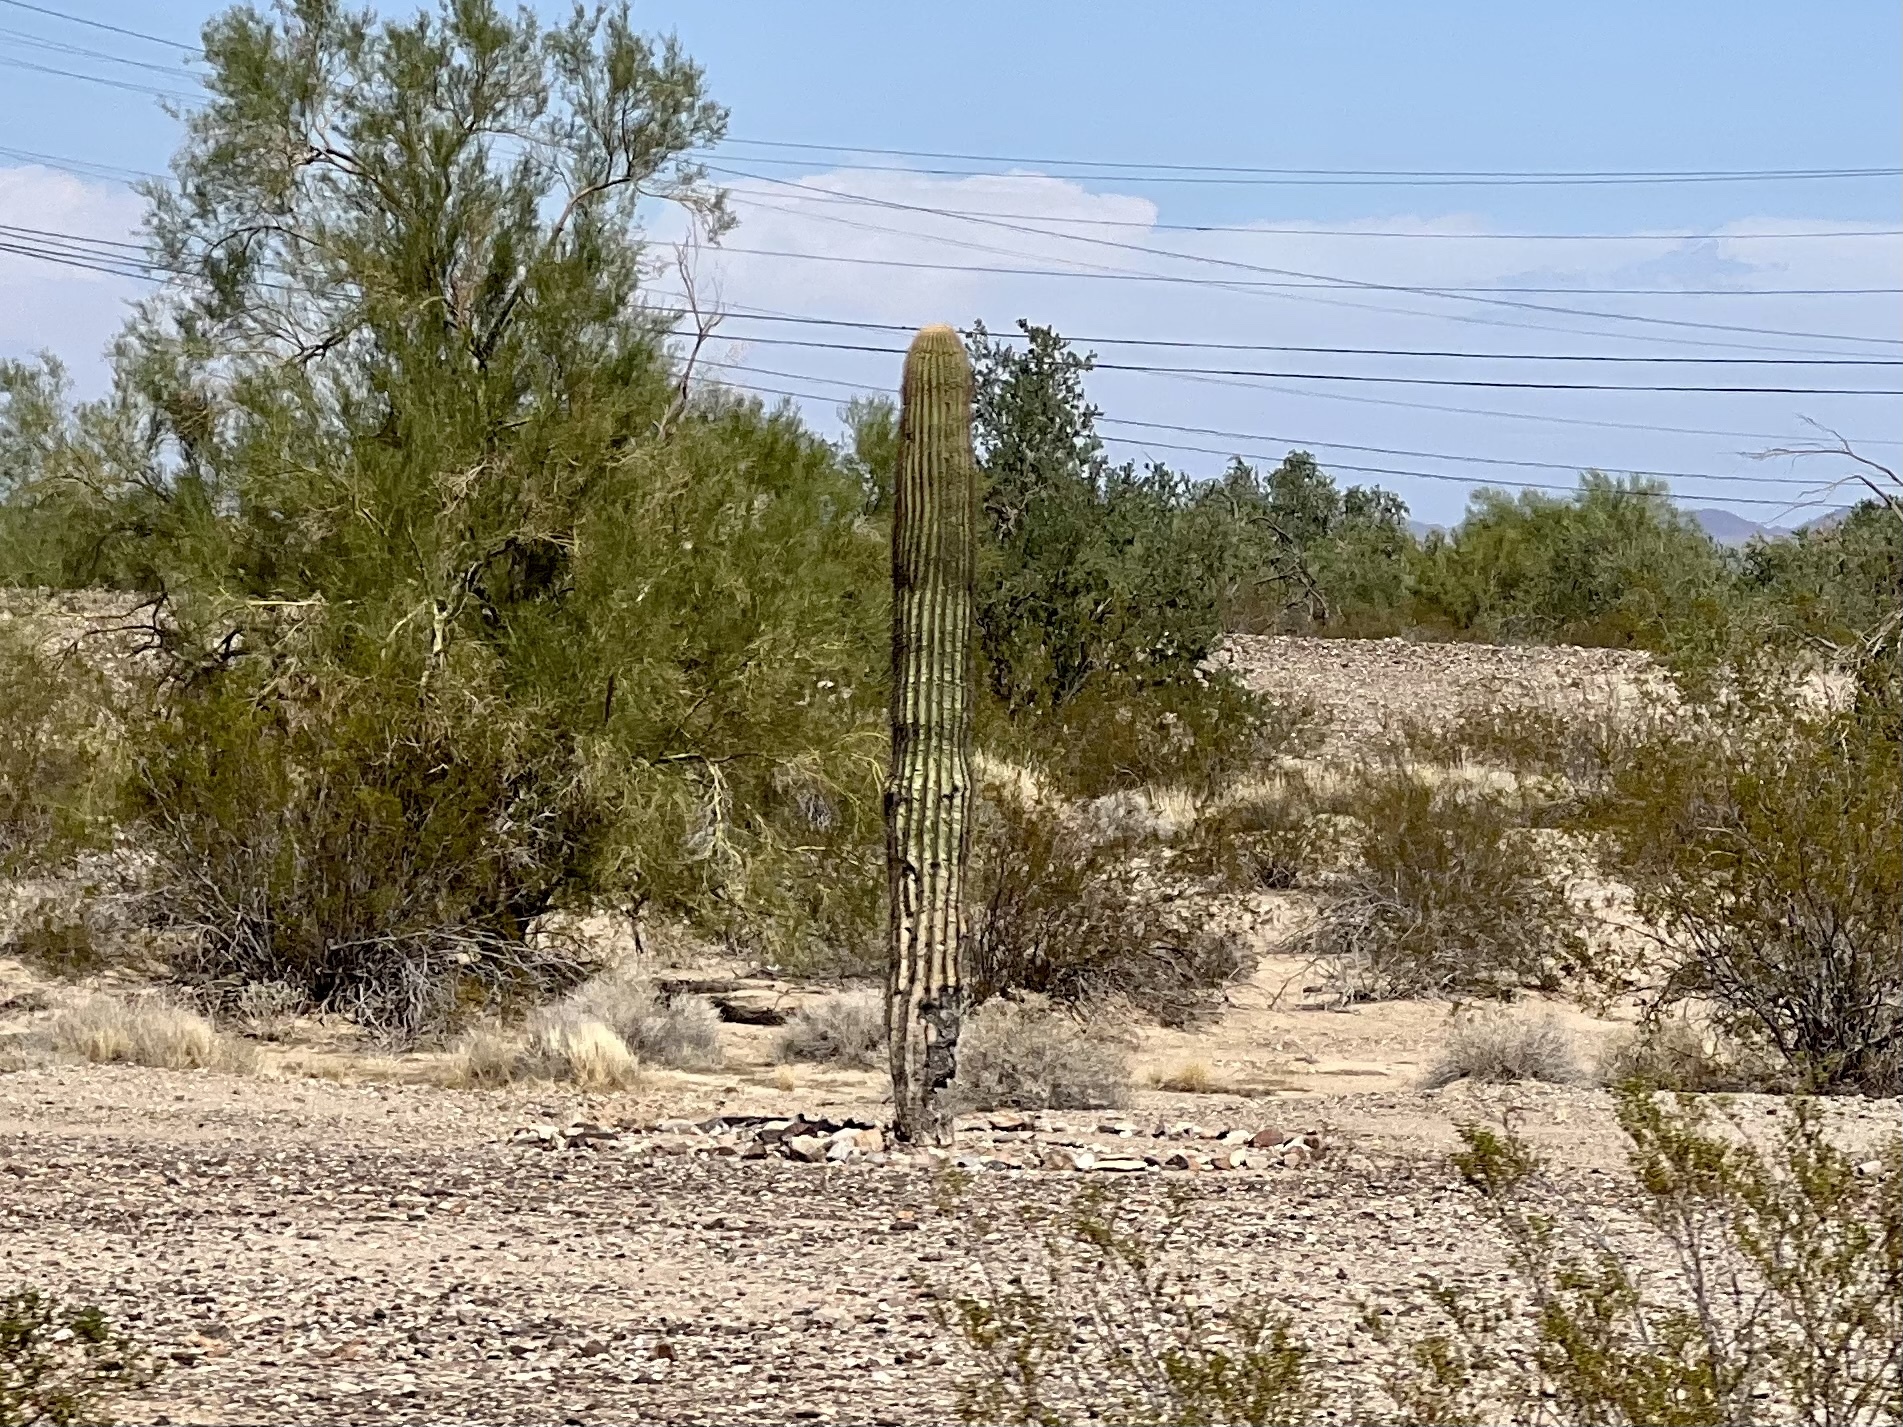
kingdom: Plantae
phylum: Tracheophyta
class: Magnoliopsida
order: Caryophyllales
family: Cactaceae
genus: Carnegiea
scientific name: Carnegiea gigantea
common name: Saguaro
